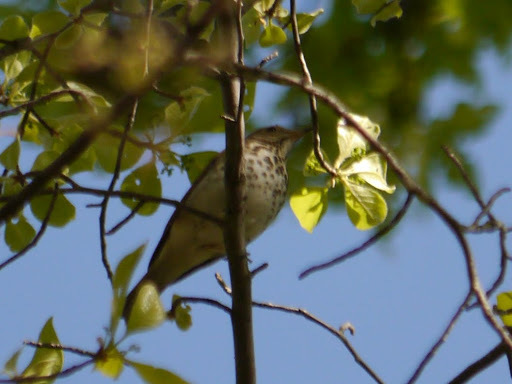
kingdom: Animalia
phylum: Chordata
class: Aves
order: Passeriformes
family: Turdidae
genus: Catharus
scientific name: Catharus guttatus
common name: Hermit thrush
